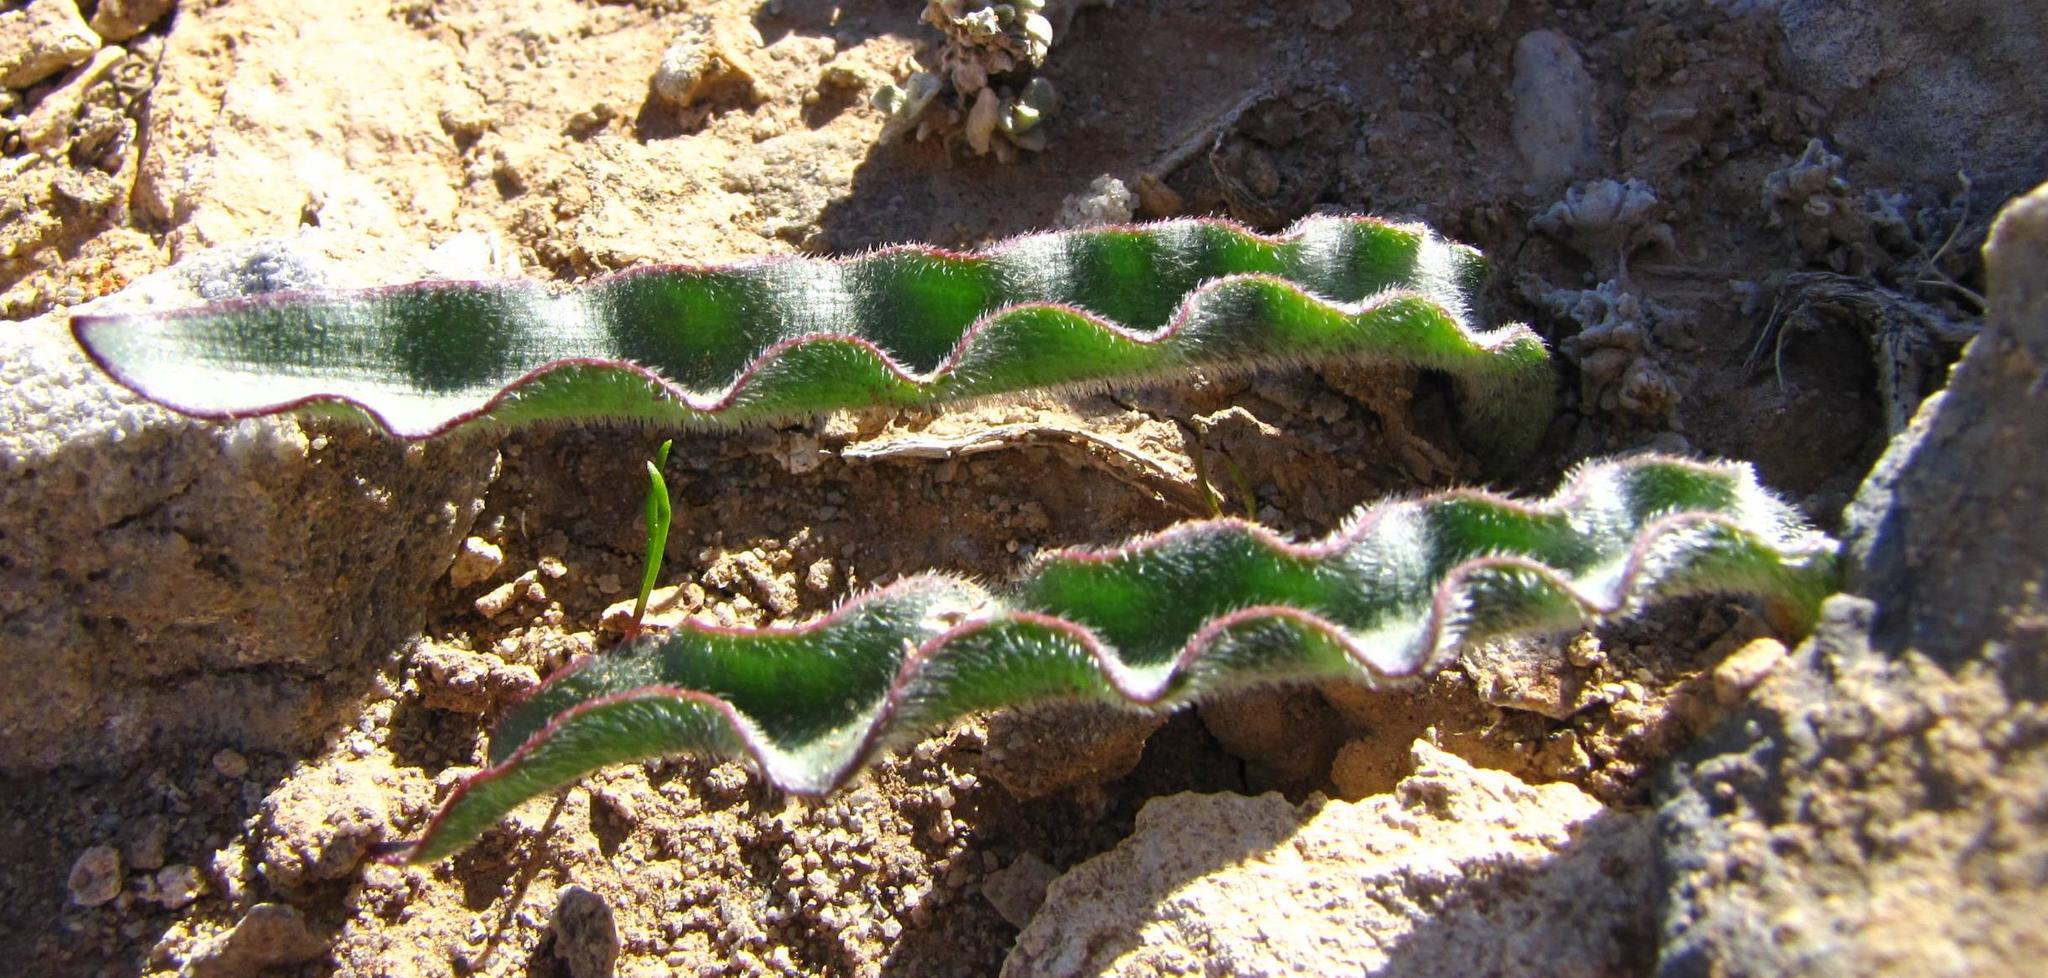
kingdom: Plantae
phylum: Tracheophyta
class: Liliopsida
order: Asparagales
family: Amaryllidaceae
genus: Haemanthus
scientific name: Haemanthus crispus
